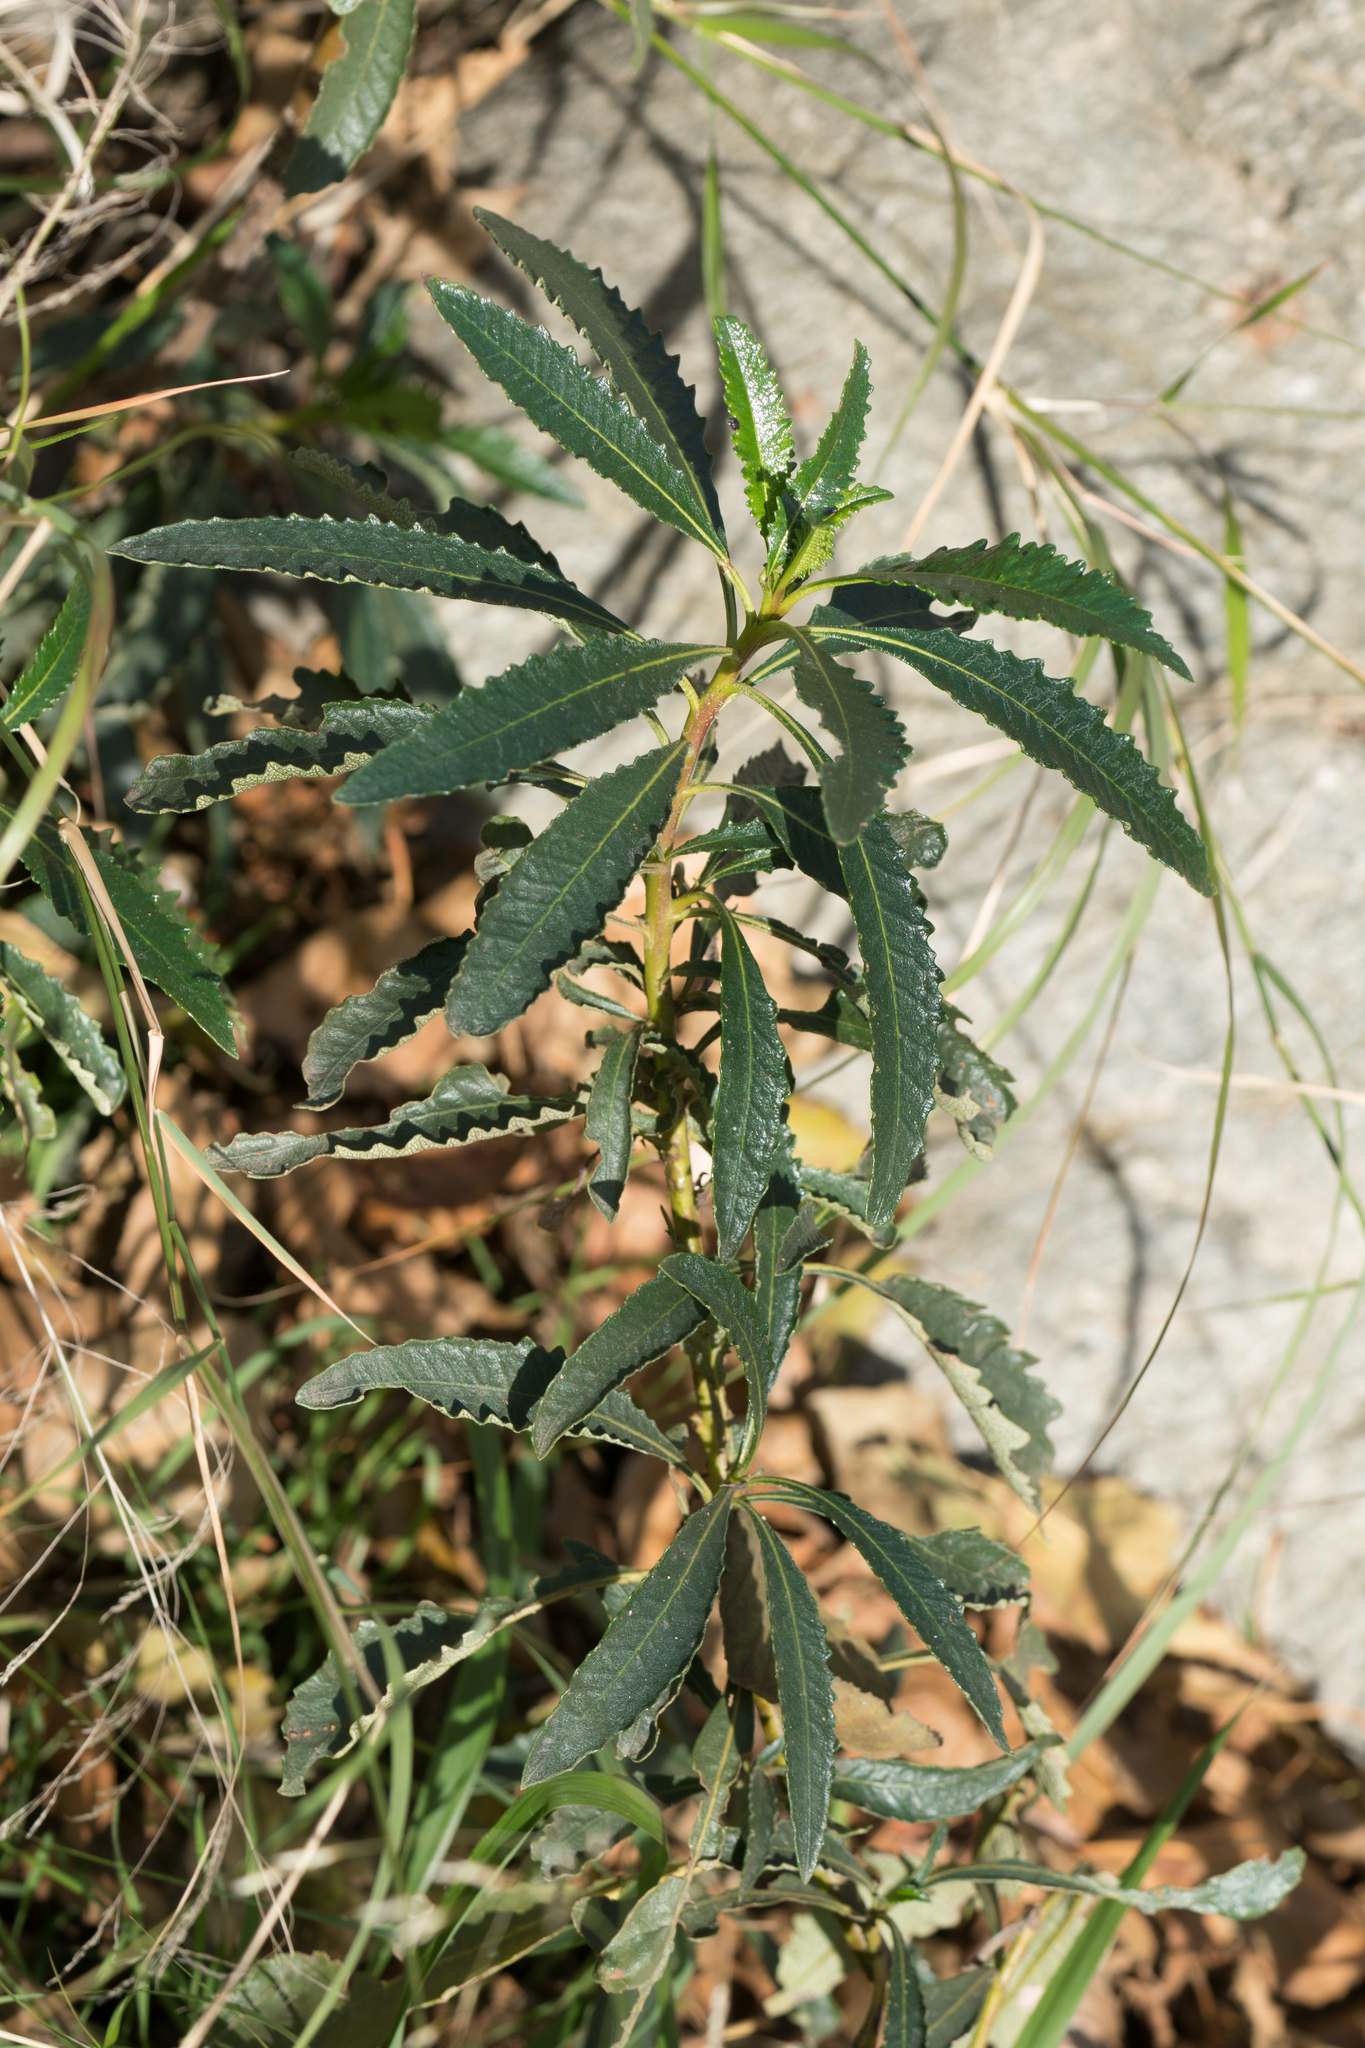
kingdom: Plantae
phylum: Tracheophyta
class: Magnoliopsida
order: Boraginales
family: Namaceae
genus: Eriodictyon
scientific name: Eriodictyon trichocalyx
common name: Hairy yerba-santa
